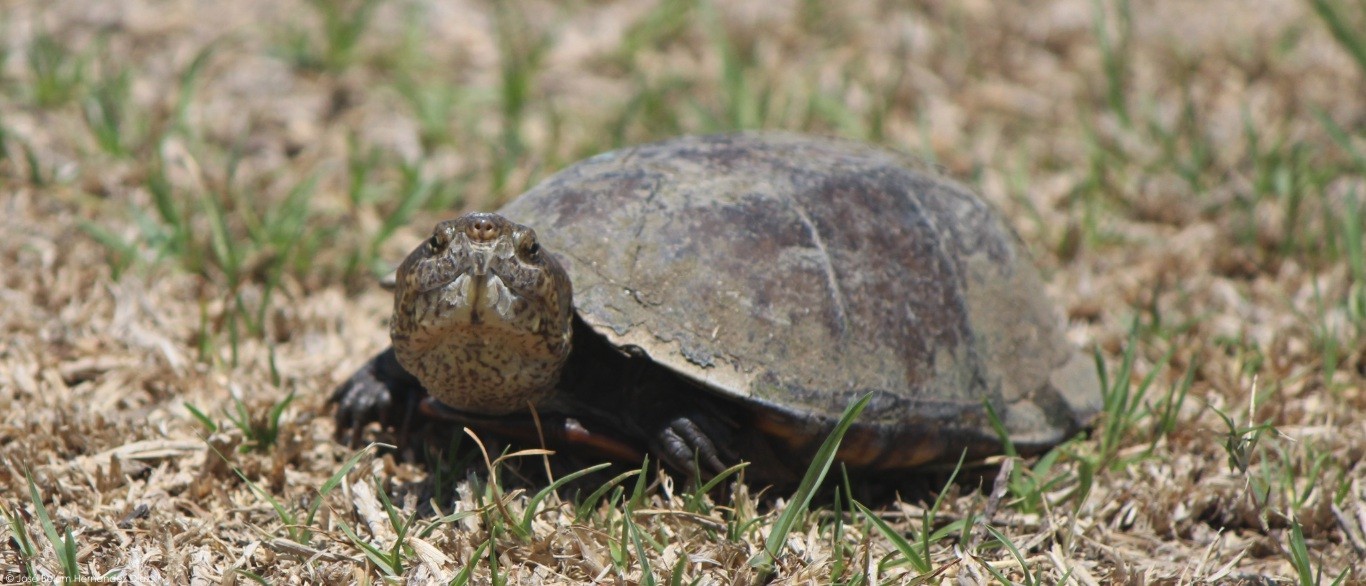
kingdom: Animalia
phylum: Chordata
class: Testudines
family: Kinosternidae
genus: Kinosternon
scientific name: Kinosternon integrum
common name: Mexican mud turtle
